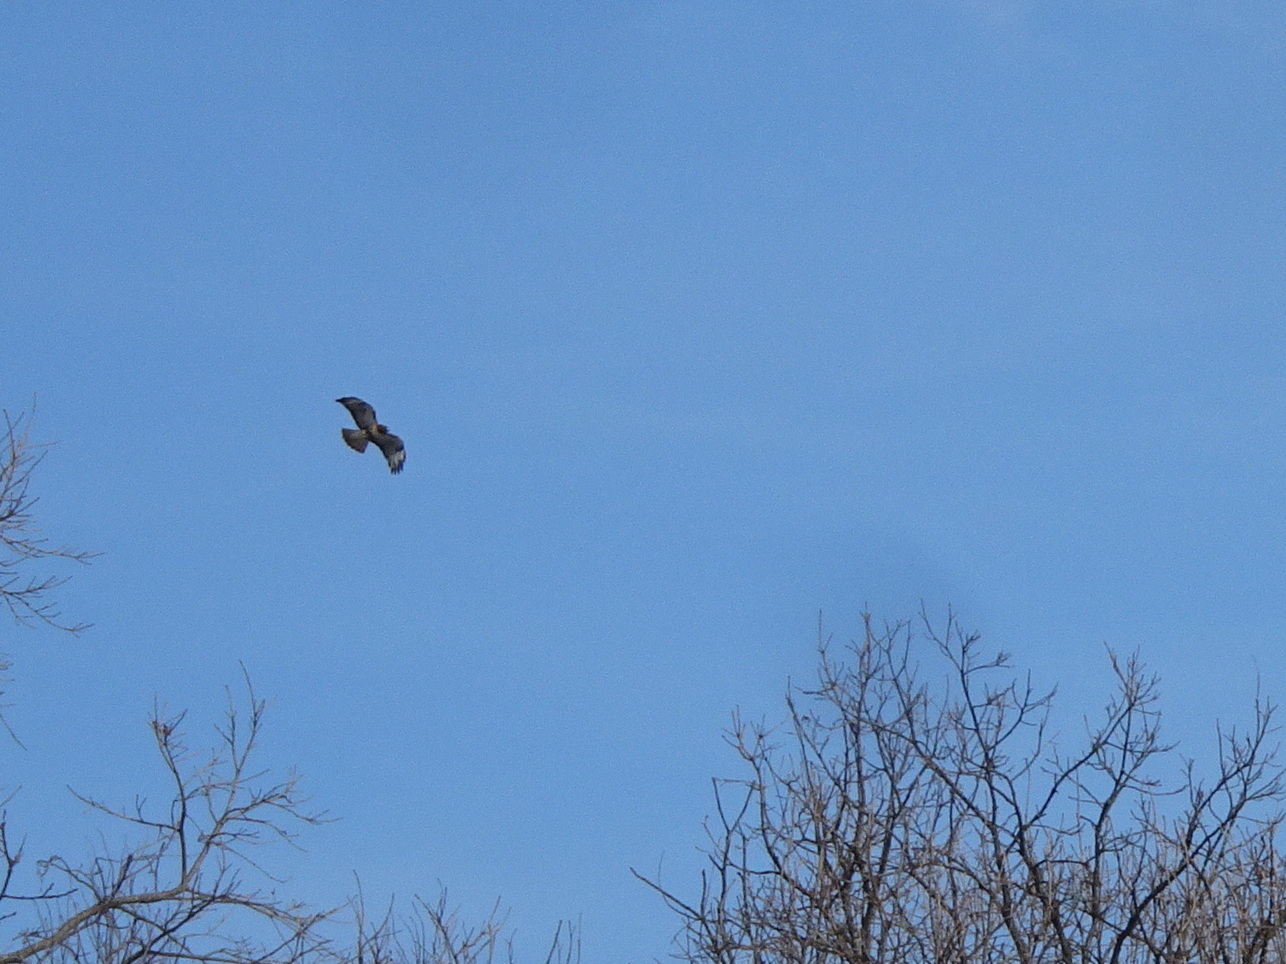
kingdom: Animalia
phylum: Chordata
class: Aves
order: Accipitriformes
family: Accipitridae
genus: Buteo
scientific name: Buteo jamaicensis
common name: Red-tailed hawk
